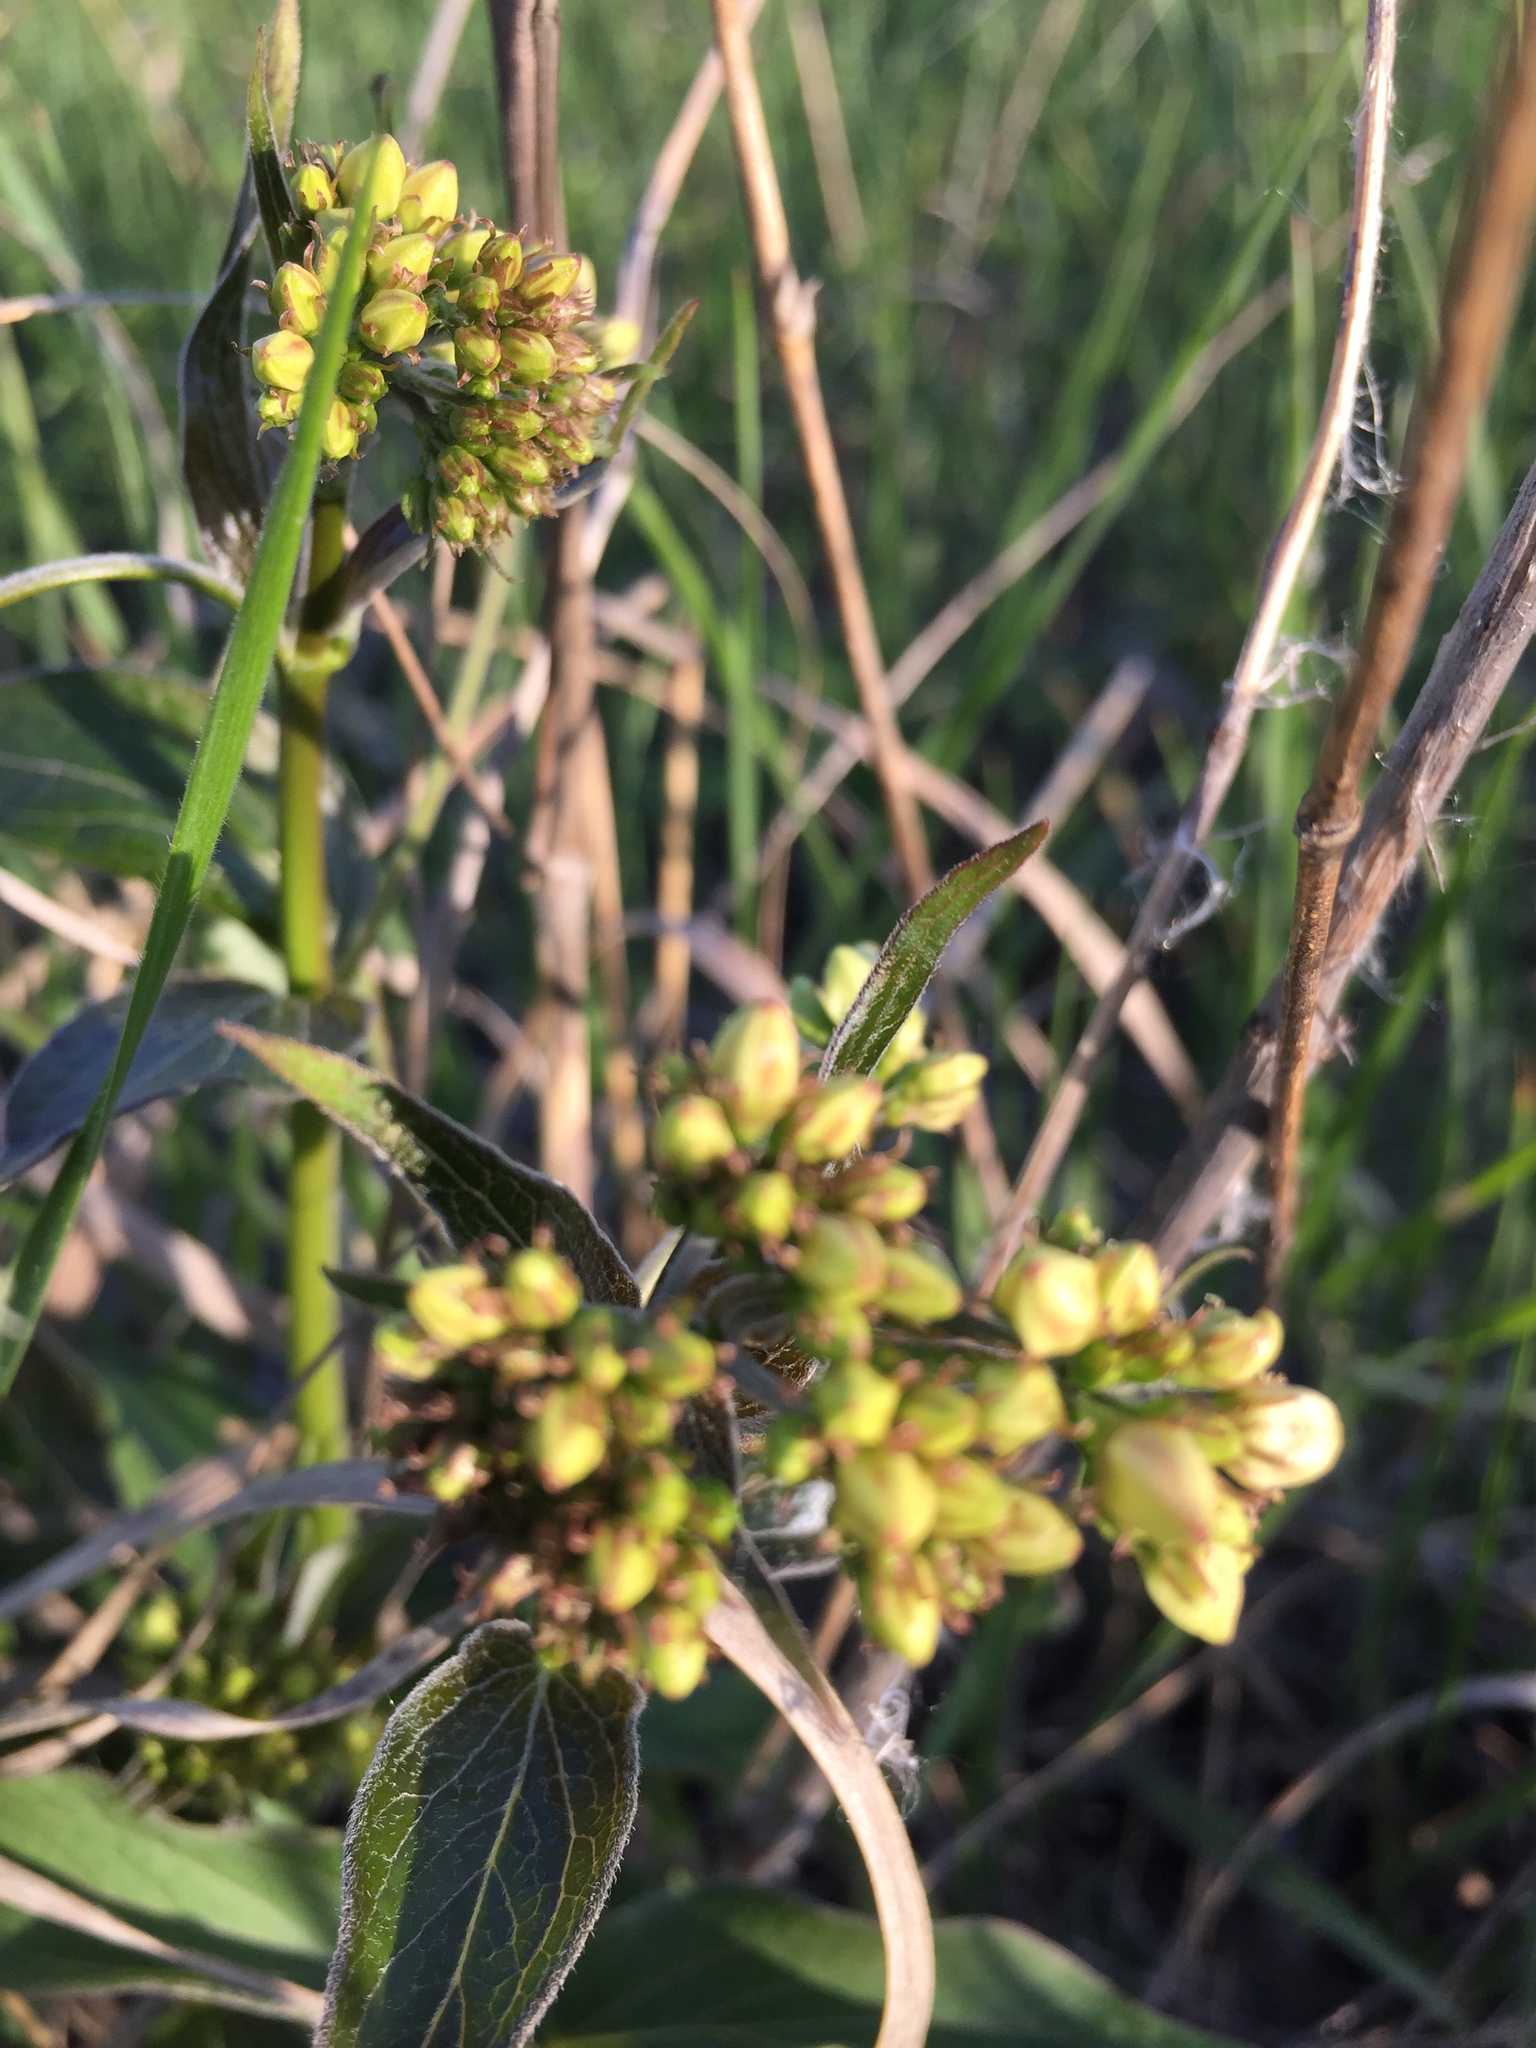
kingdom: Plantae
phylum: Tracheophyta
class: Magnoliopsida
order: Gentianales
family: Apocynaceae
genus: Vincetoxicum
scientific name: Vincetoxicum hirundinaria
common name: White swallowwort
